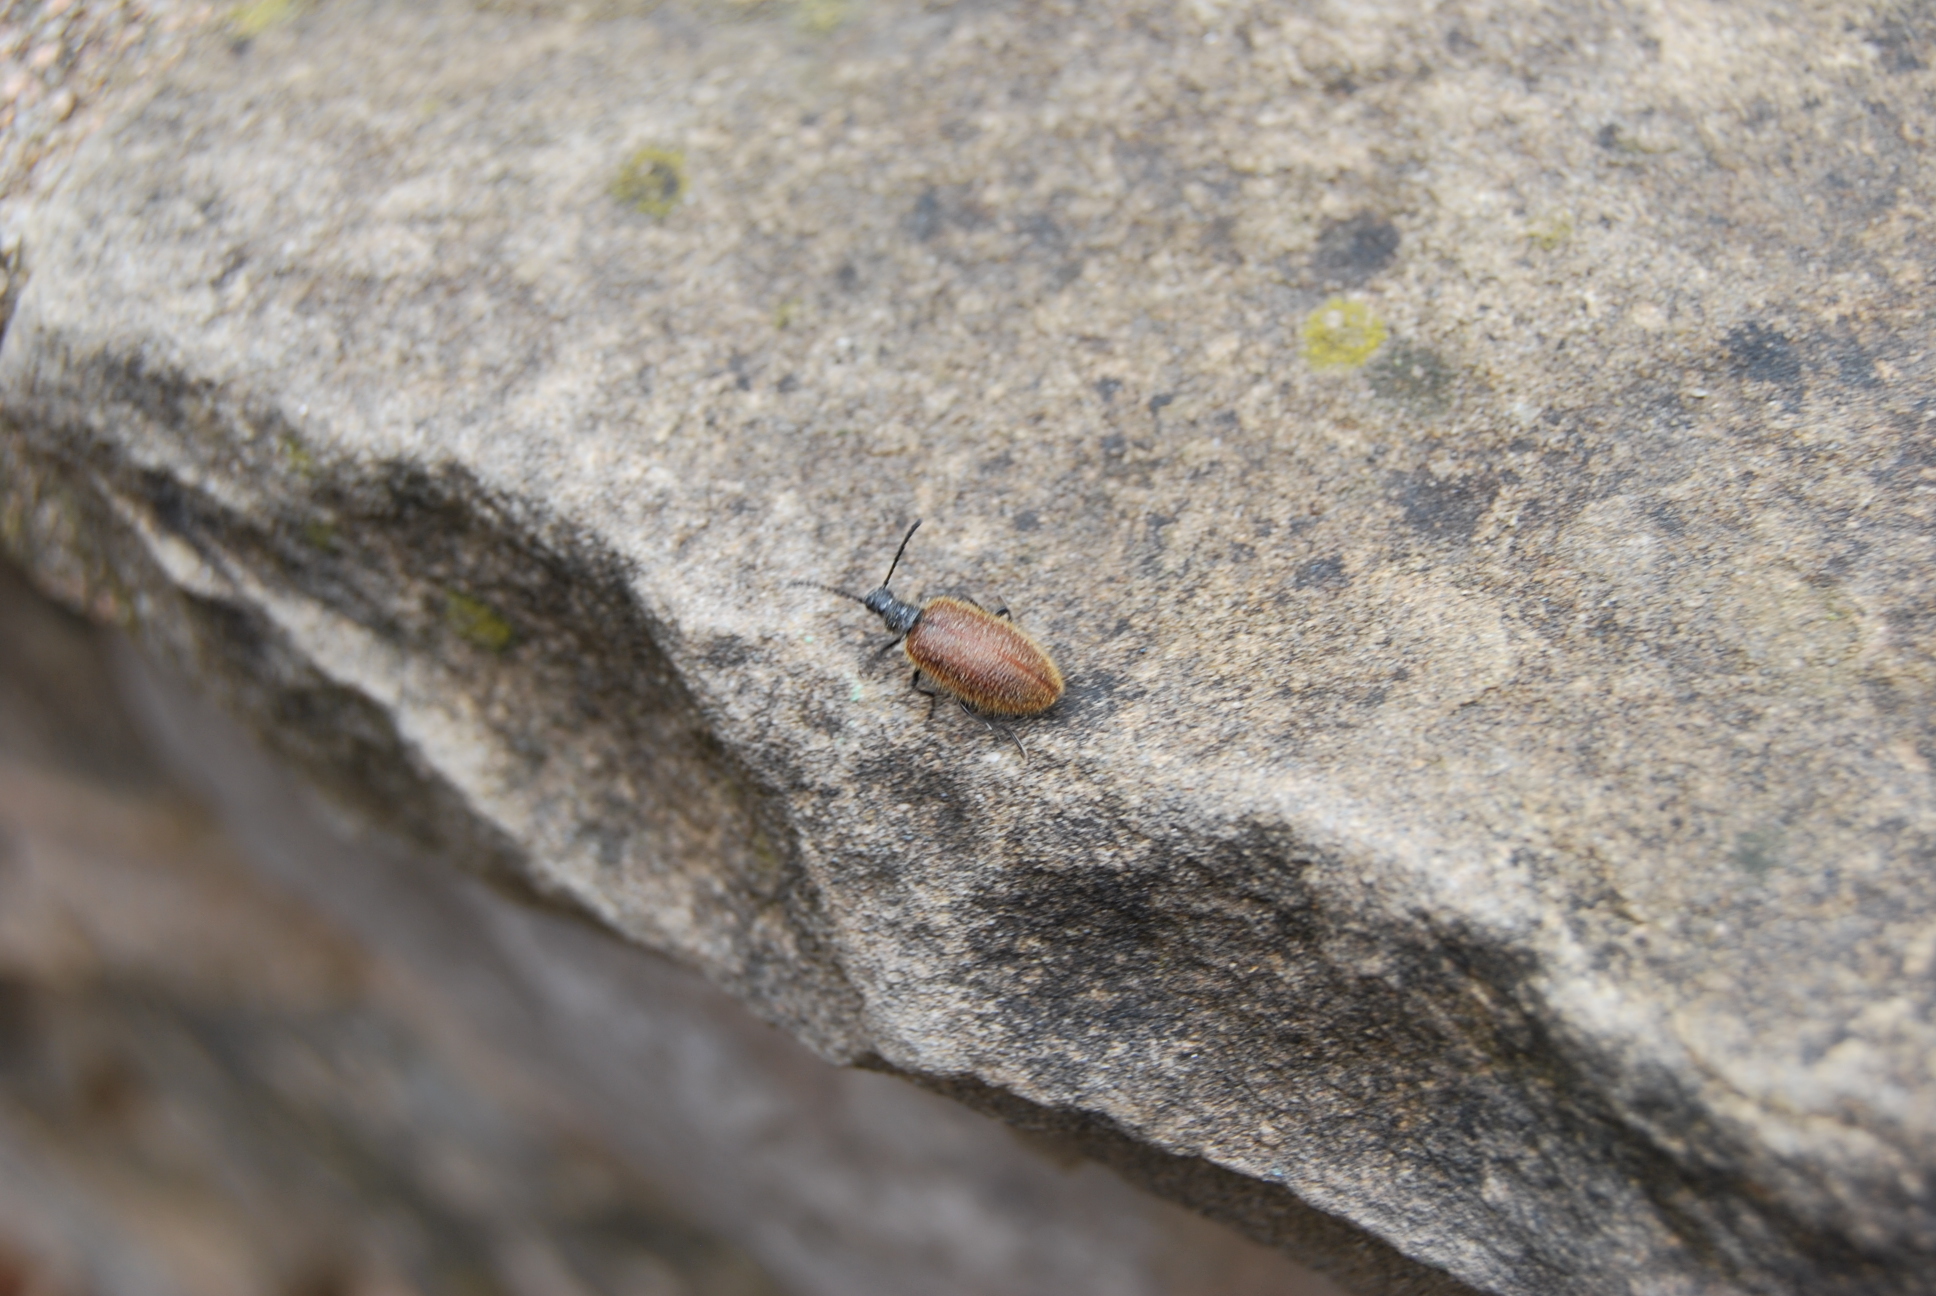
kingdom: Animalia
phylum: Arthropoda
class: Insecta
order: Coleoptera
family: Tenebrionidae
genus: Lagria
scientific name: Lagria grenieri
